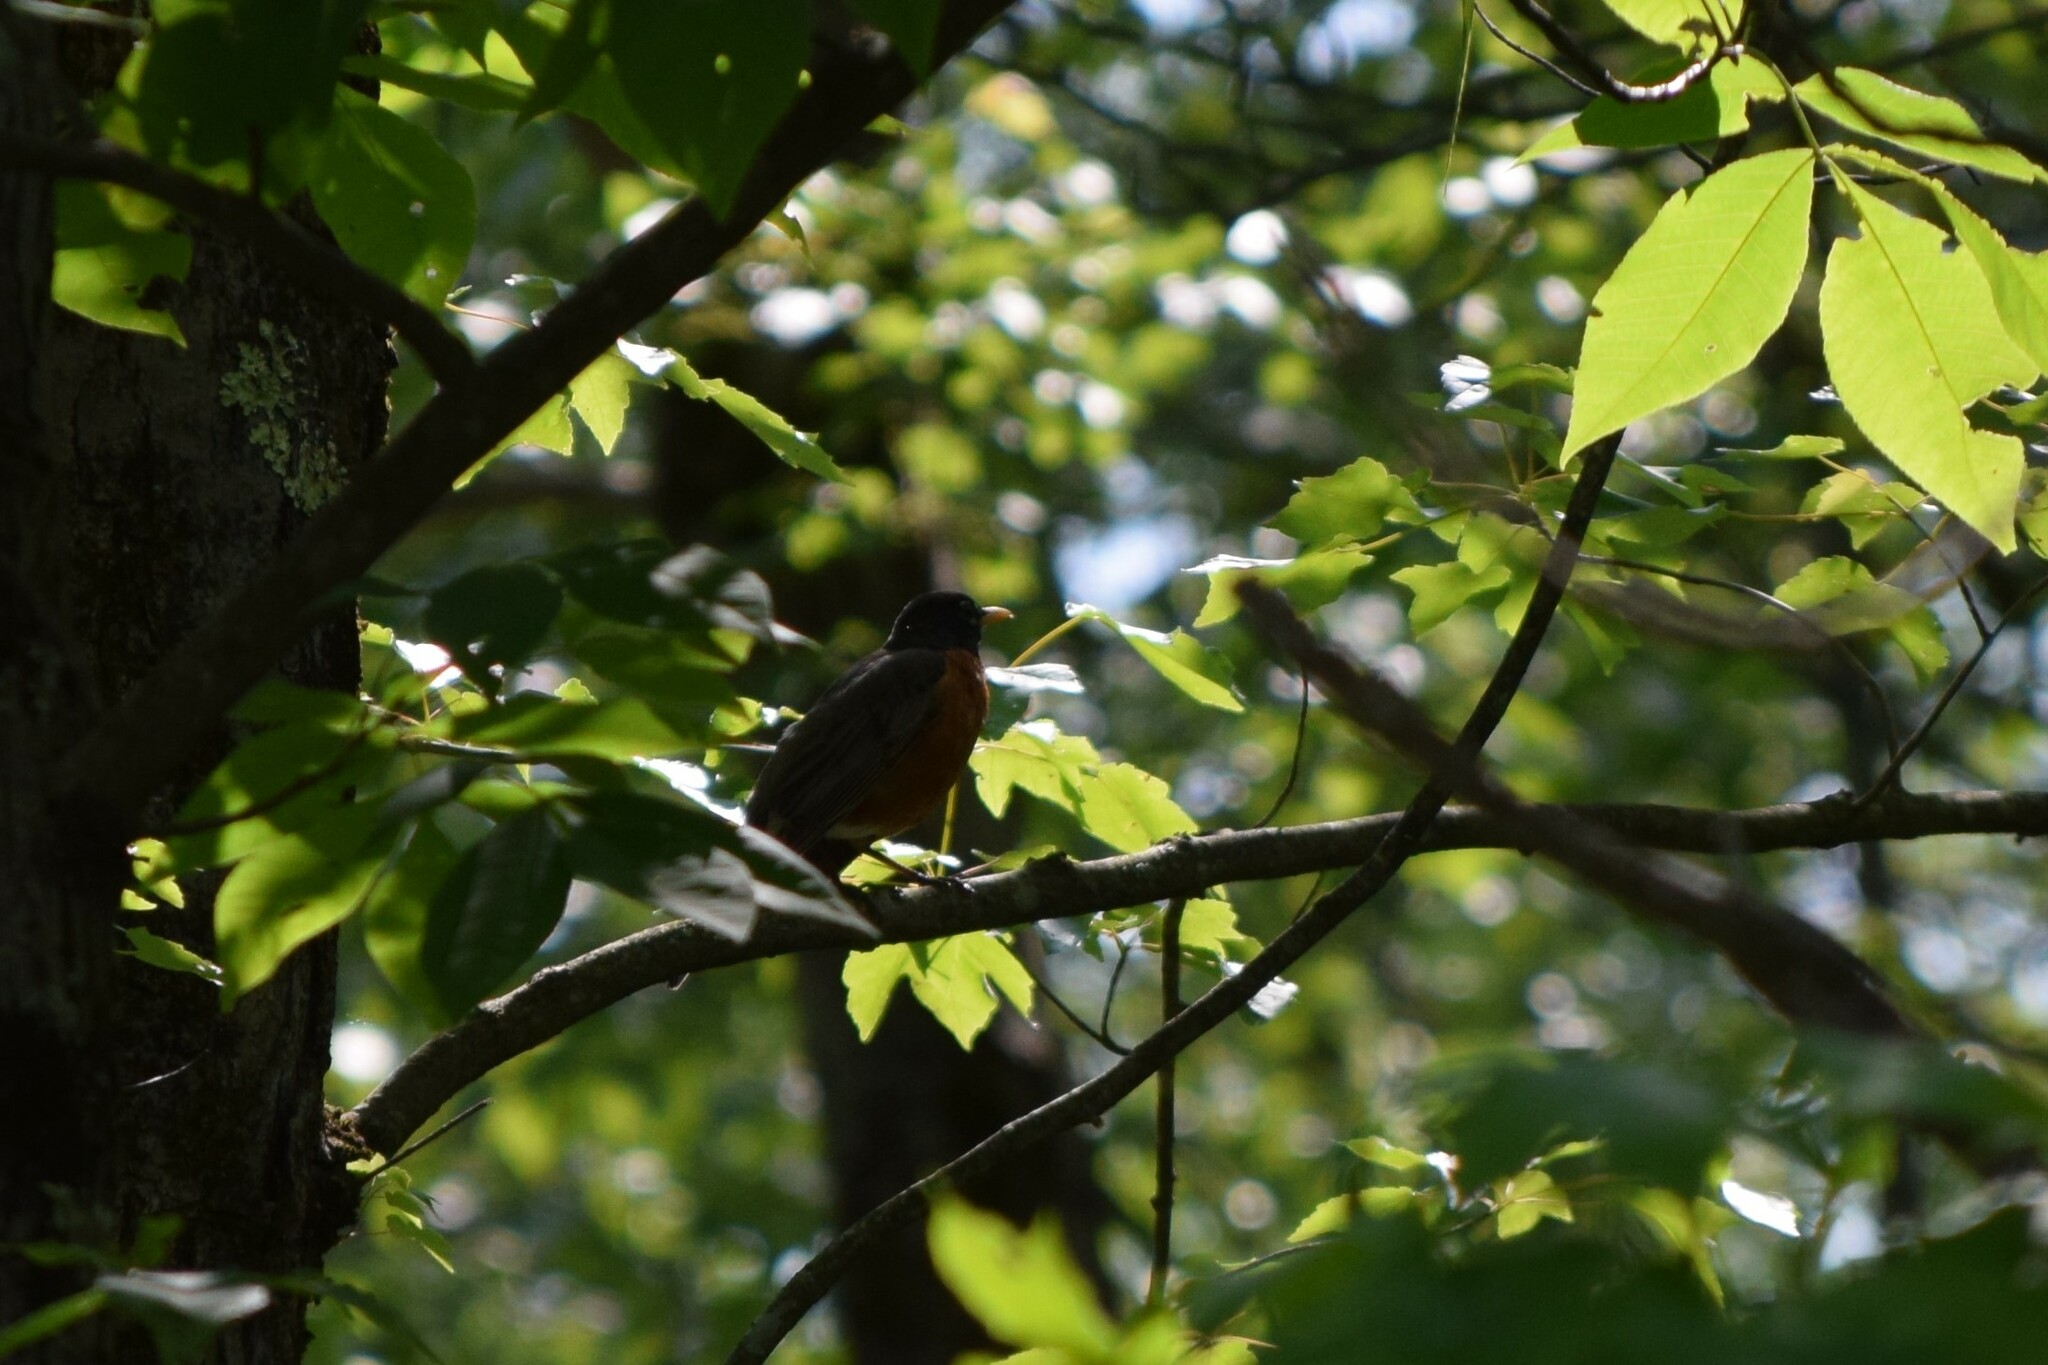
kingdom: Animalia
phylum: Chordata
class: Aves
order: Passeriformes
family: Turdidae
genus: Turdus
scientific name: Turdus migratorius
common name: American robin
